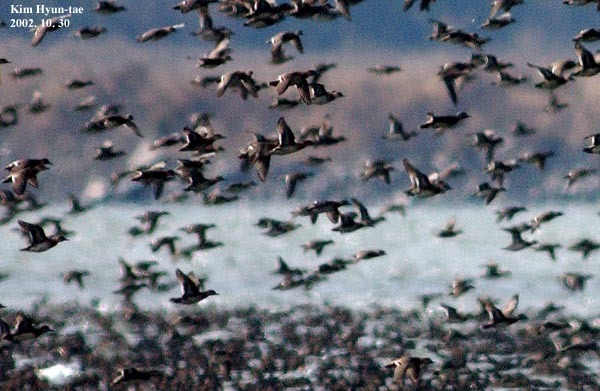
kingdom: Animalia
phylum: Chordata
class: Aves
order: Anseriformes
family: Anatidae
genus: Sibirionetta
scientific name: Sibirionetta formosa
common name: Baikal teal
